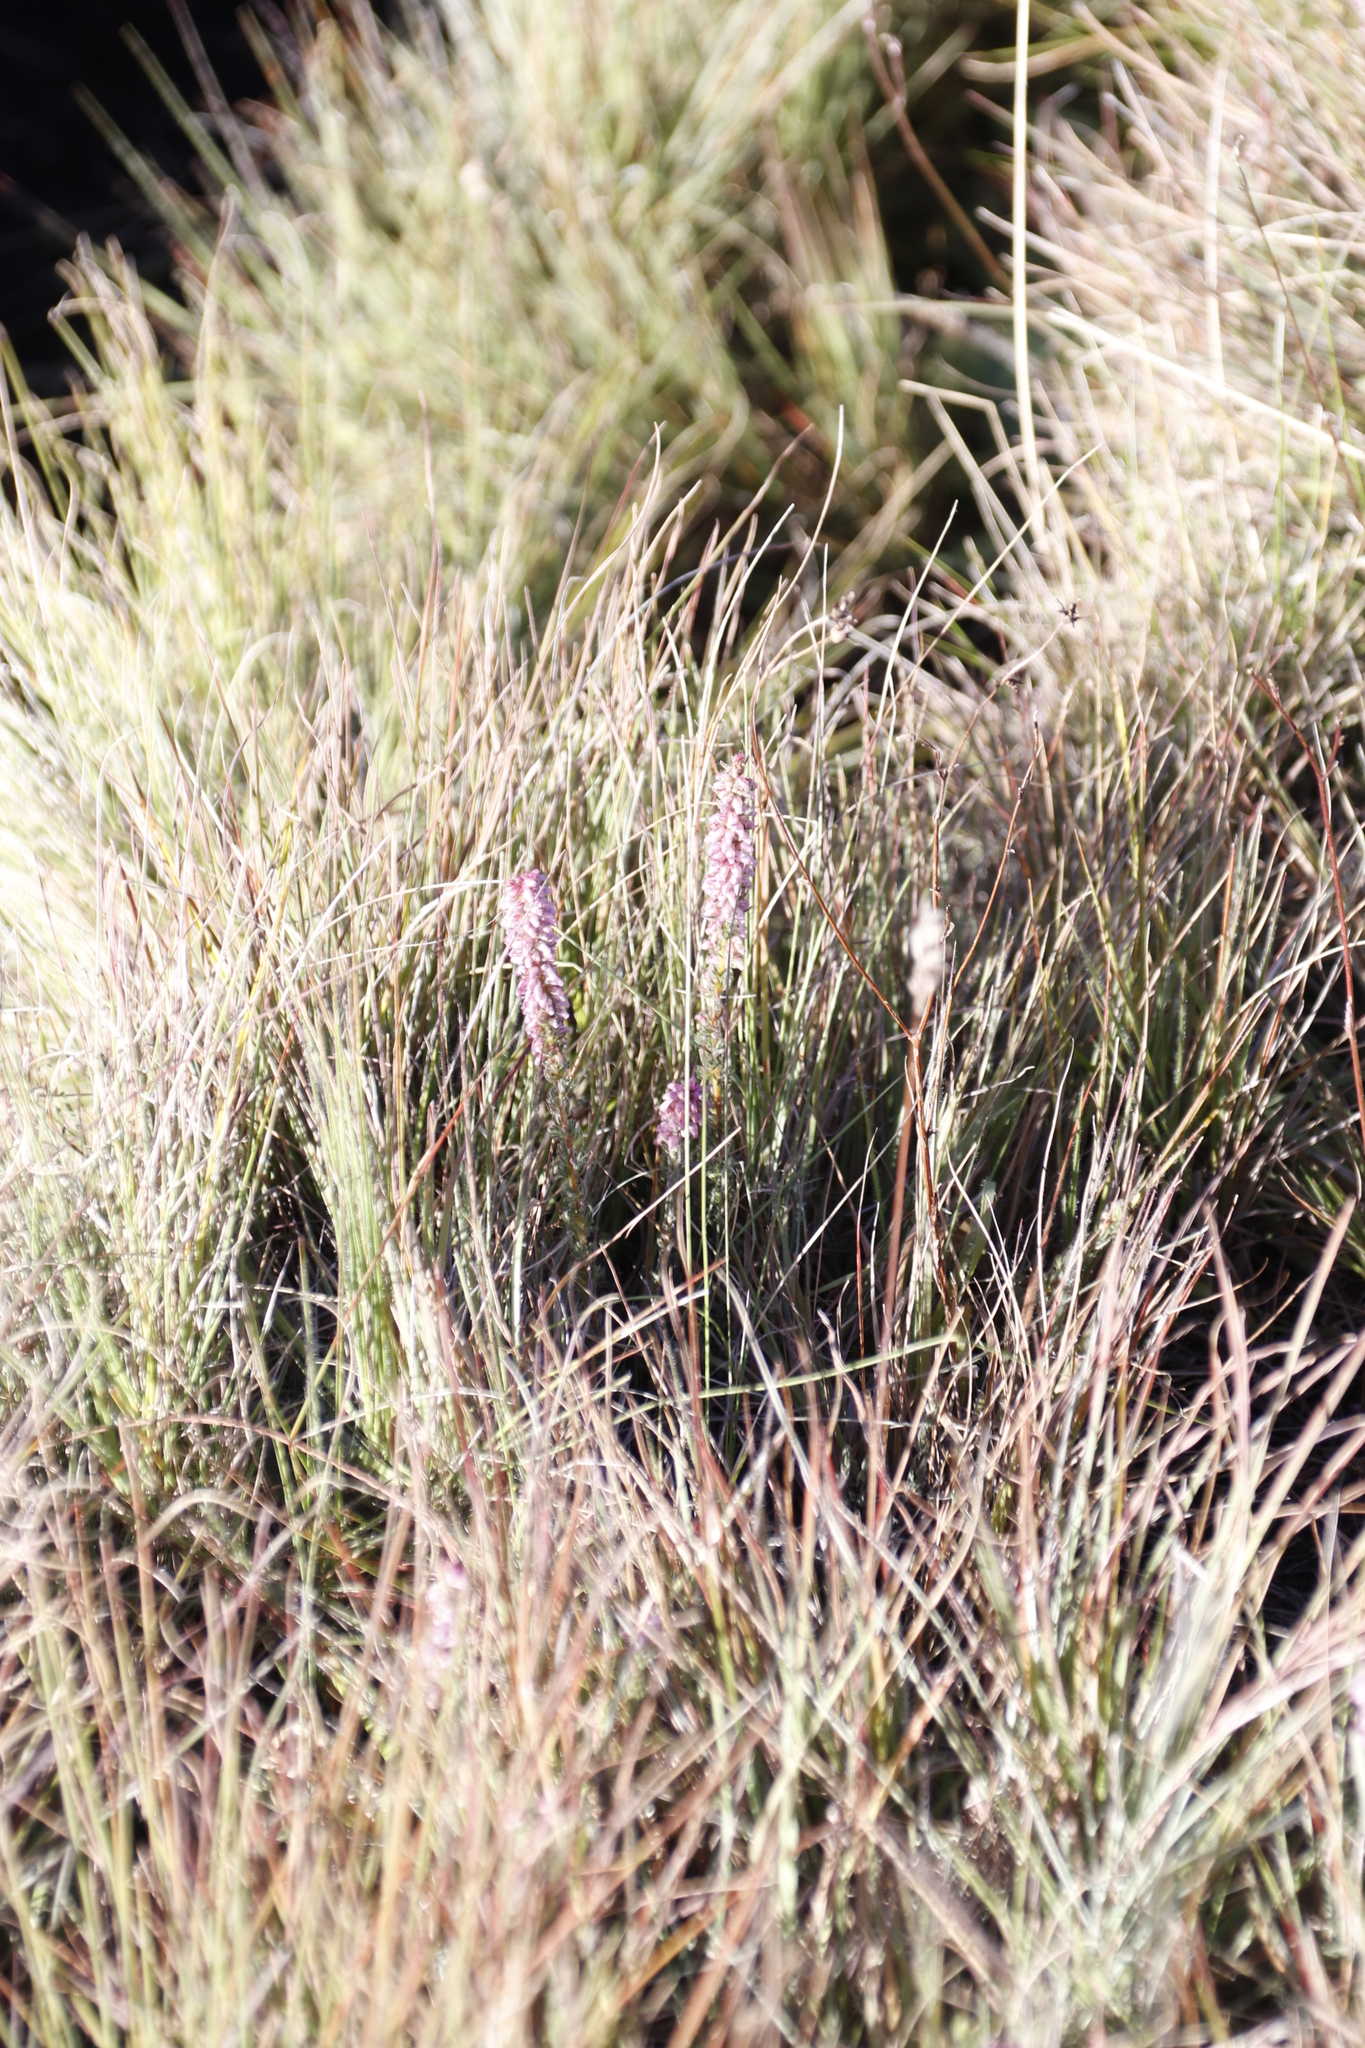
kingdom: Plantae
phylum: Tracheophyta
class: Magnoliopsida
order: Ericales
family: Ericaceae
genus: Erica
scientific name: Erica alopecurus
